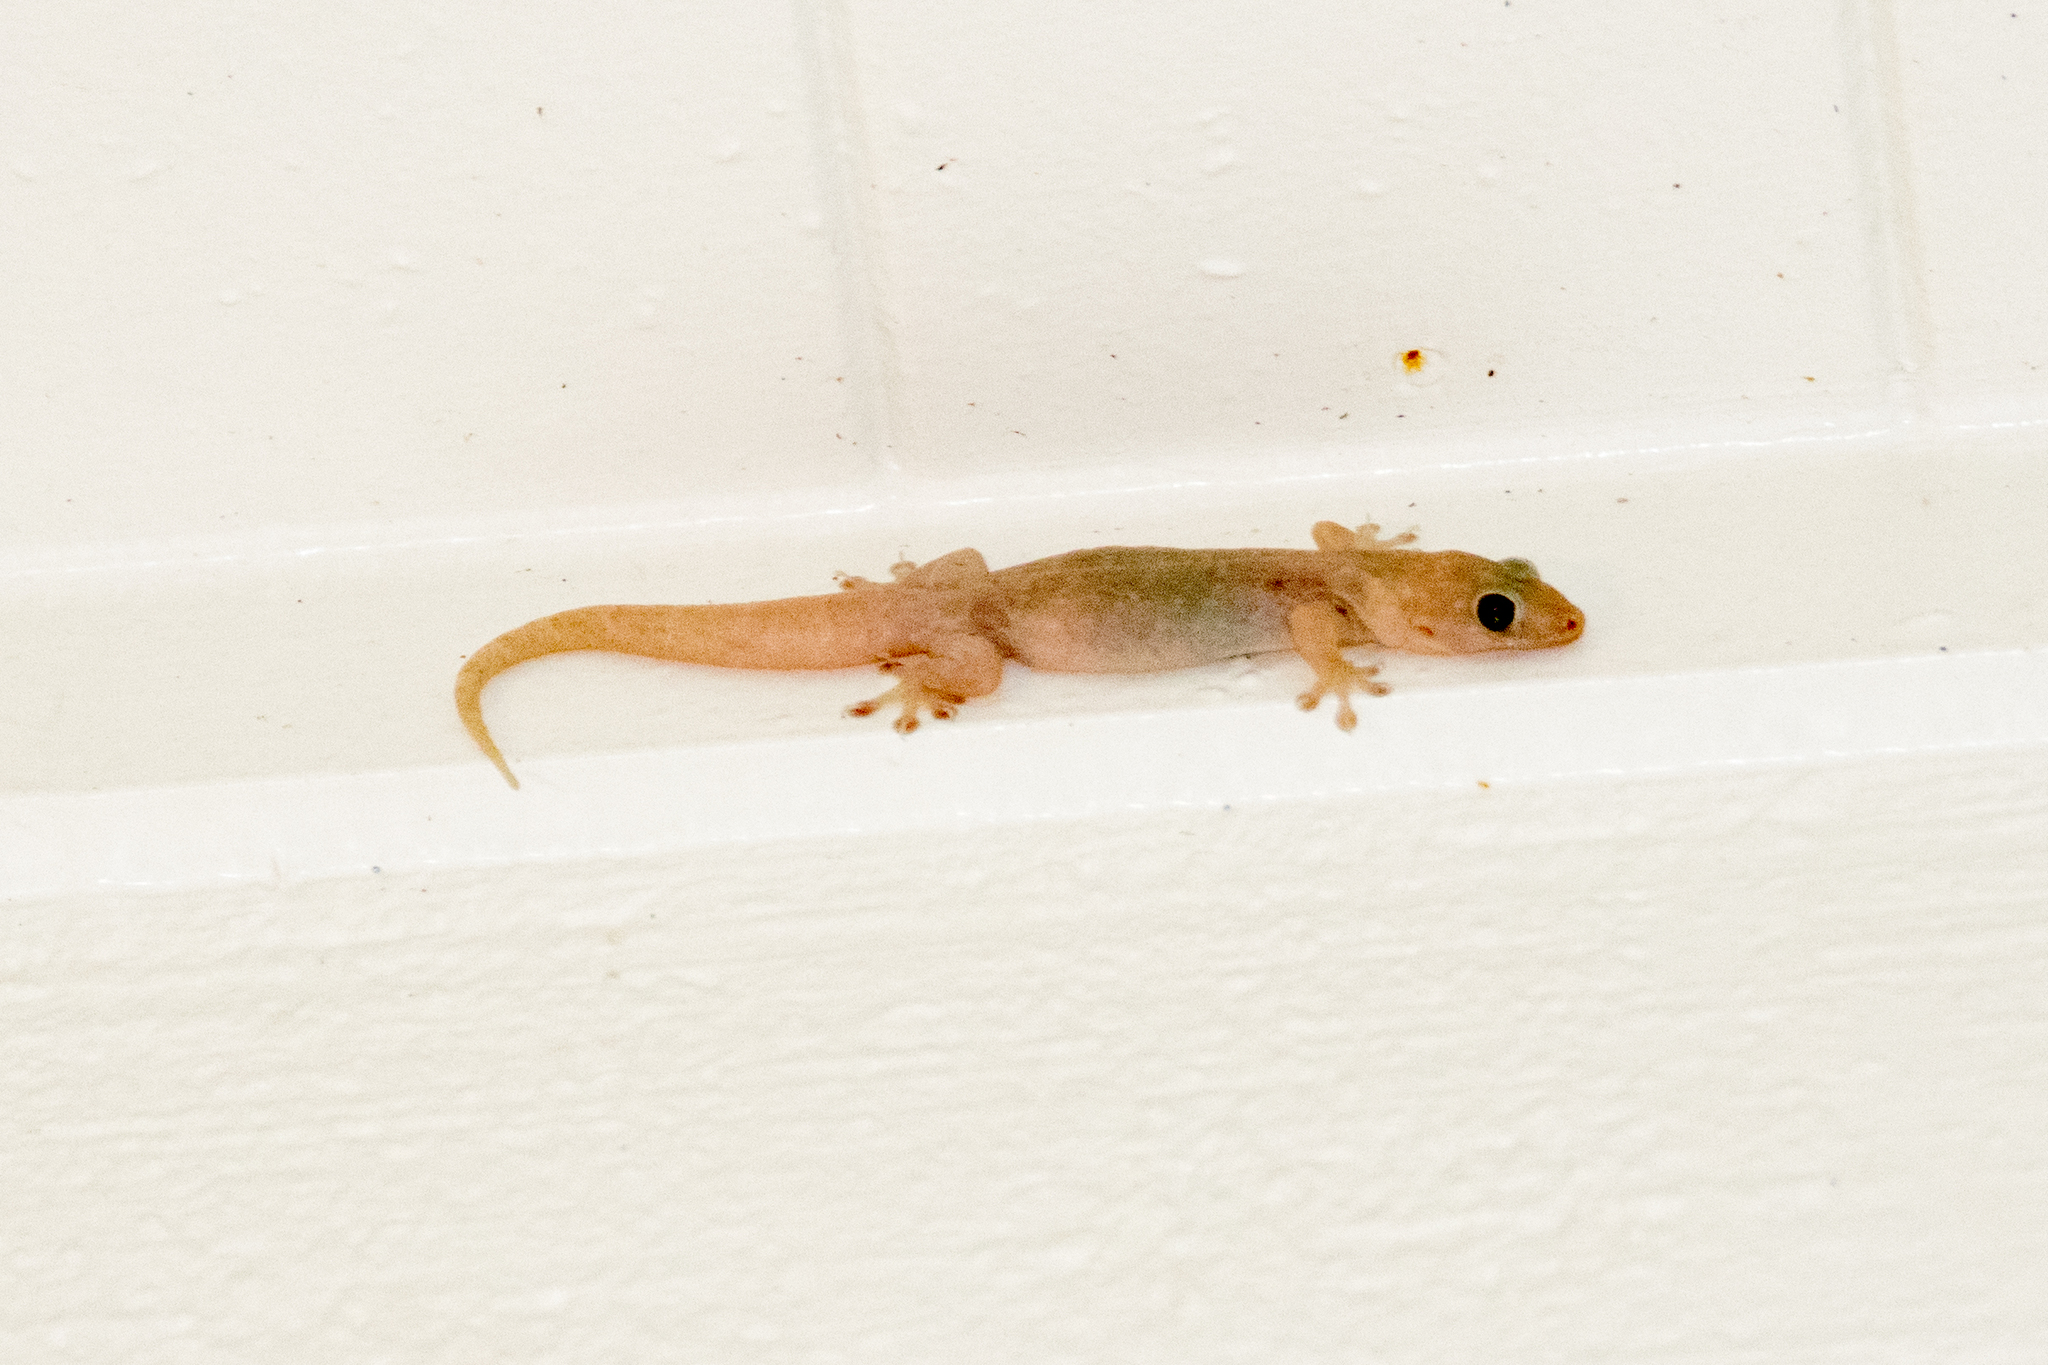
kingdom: Animalia
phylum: Chordata
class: Squamata
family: Gekkonidae
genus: Gehyra
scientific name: Gehyra dubia
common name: Dubious dtella
